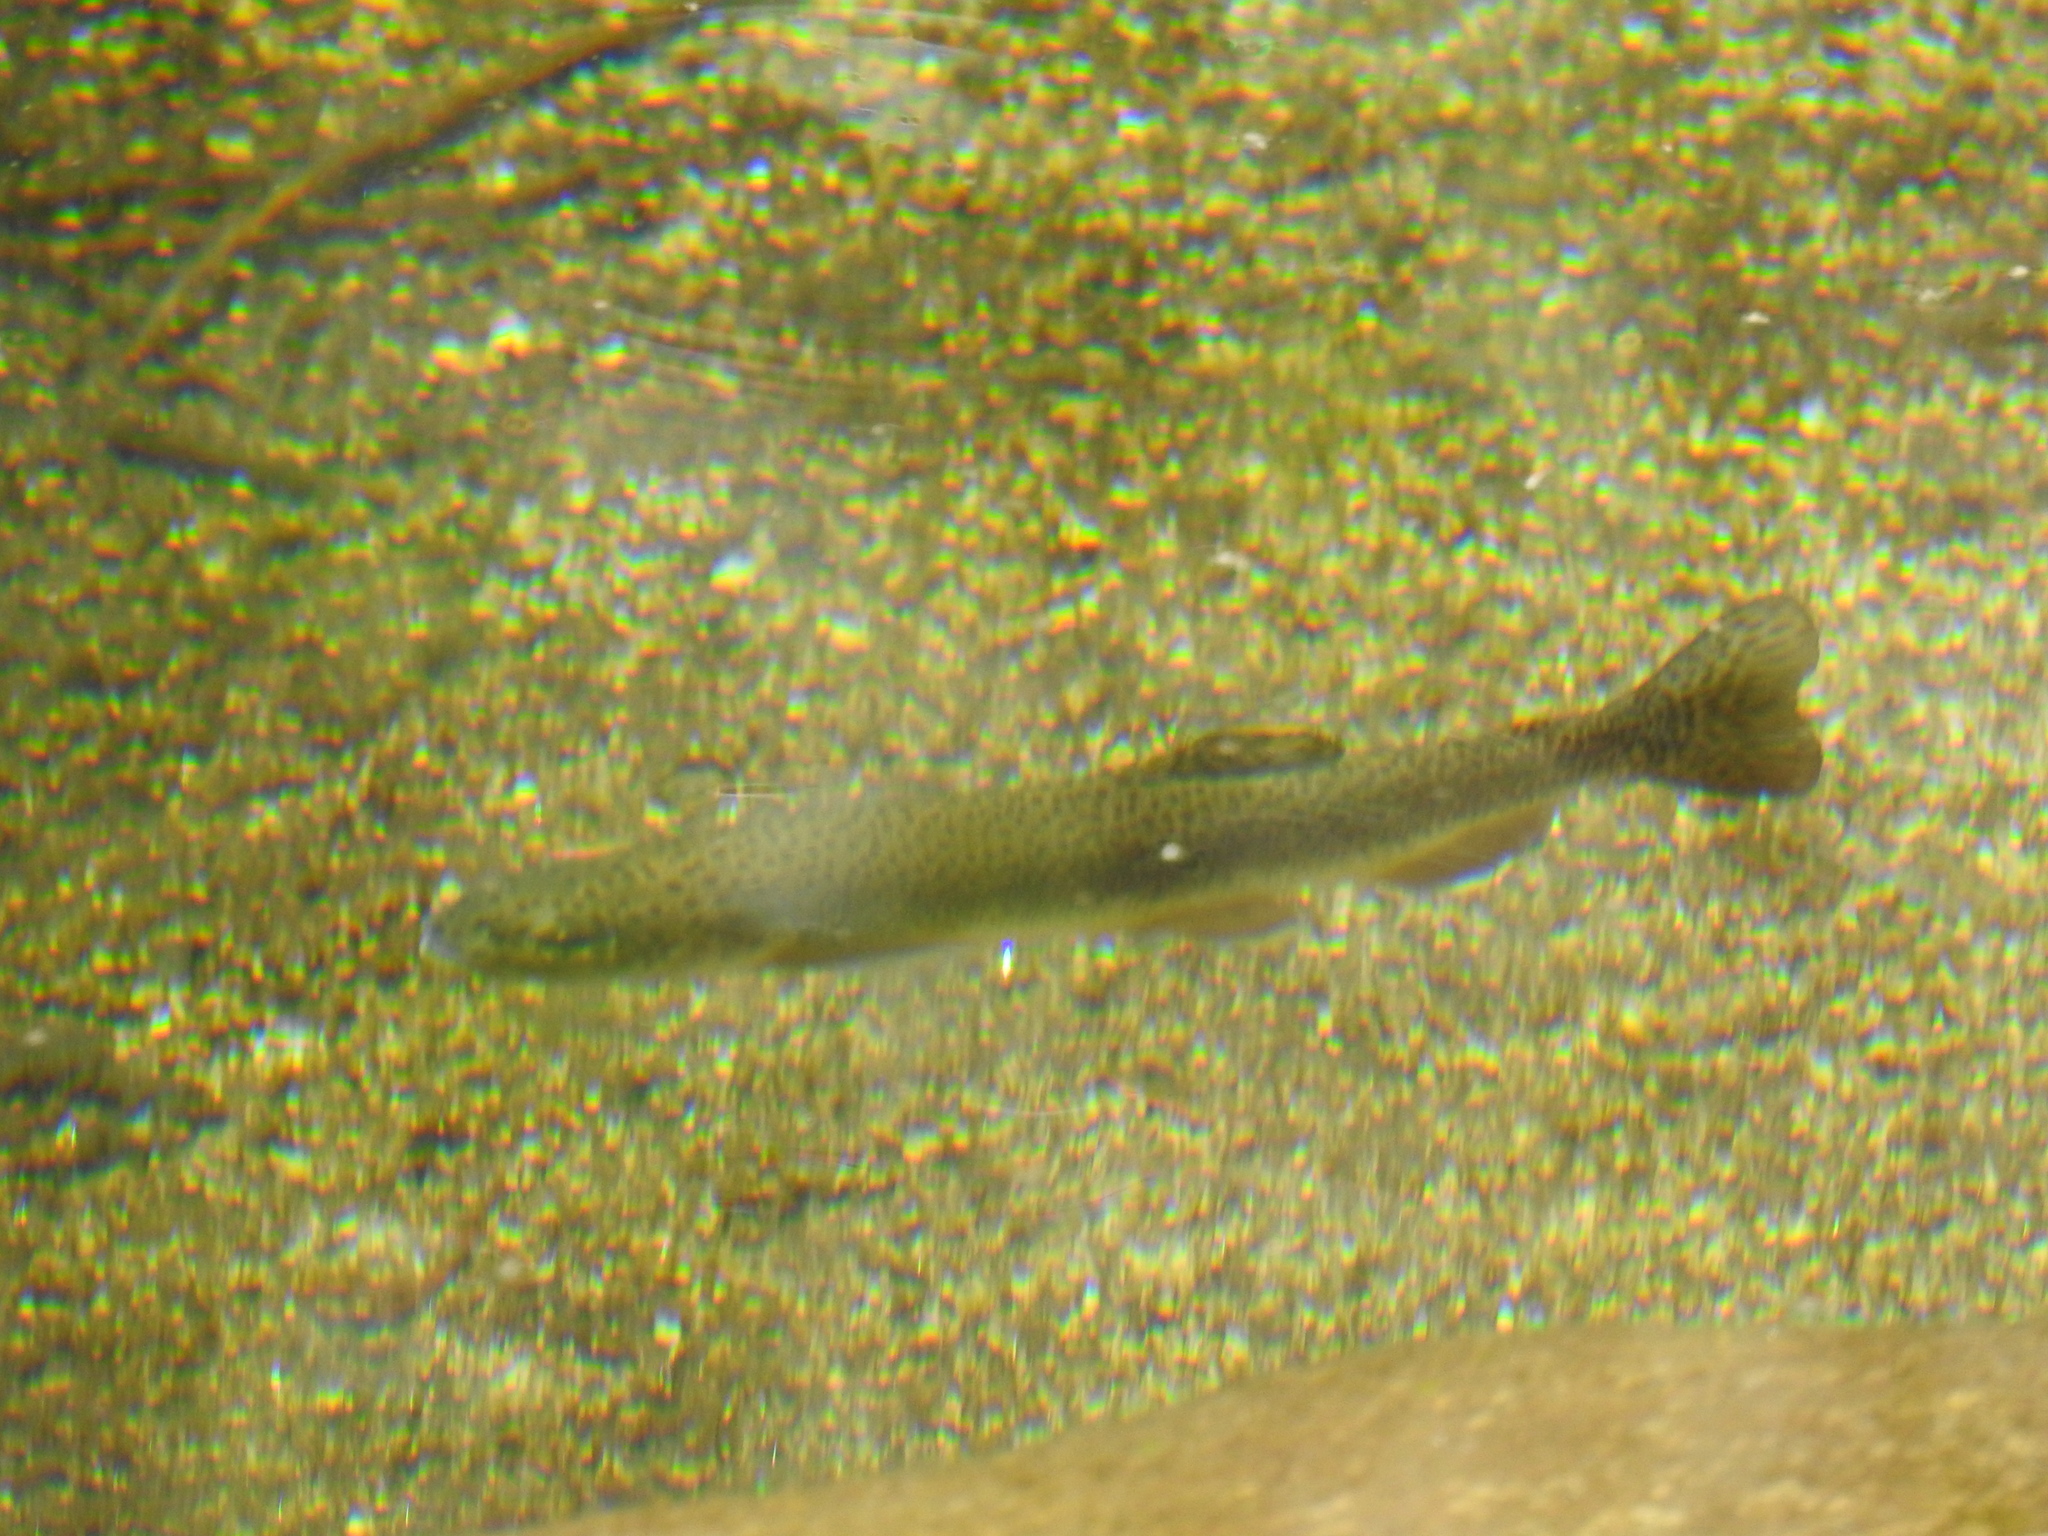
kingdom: Animalia
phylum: Chordata
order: Salmoniformes
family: Salmonidae
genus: Oncorhynchus
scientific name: Oncorhynchus
